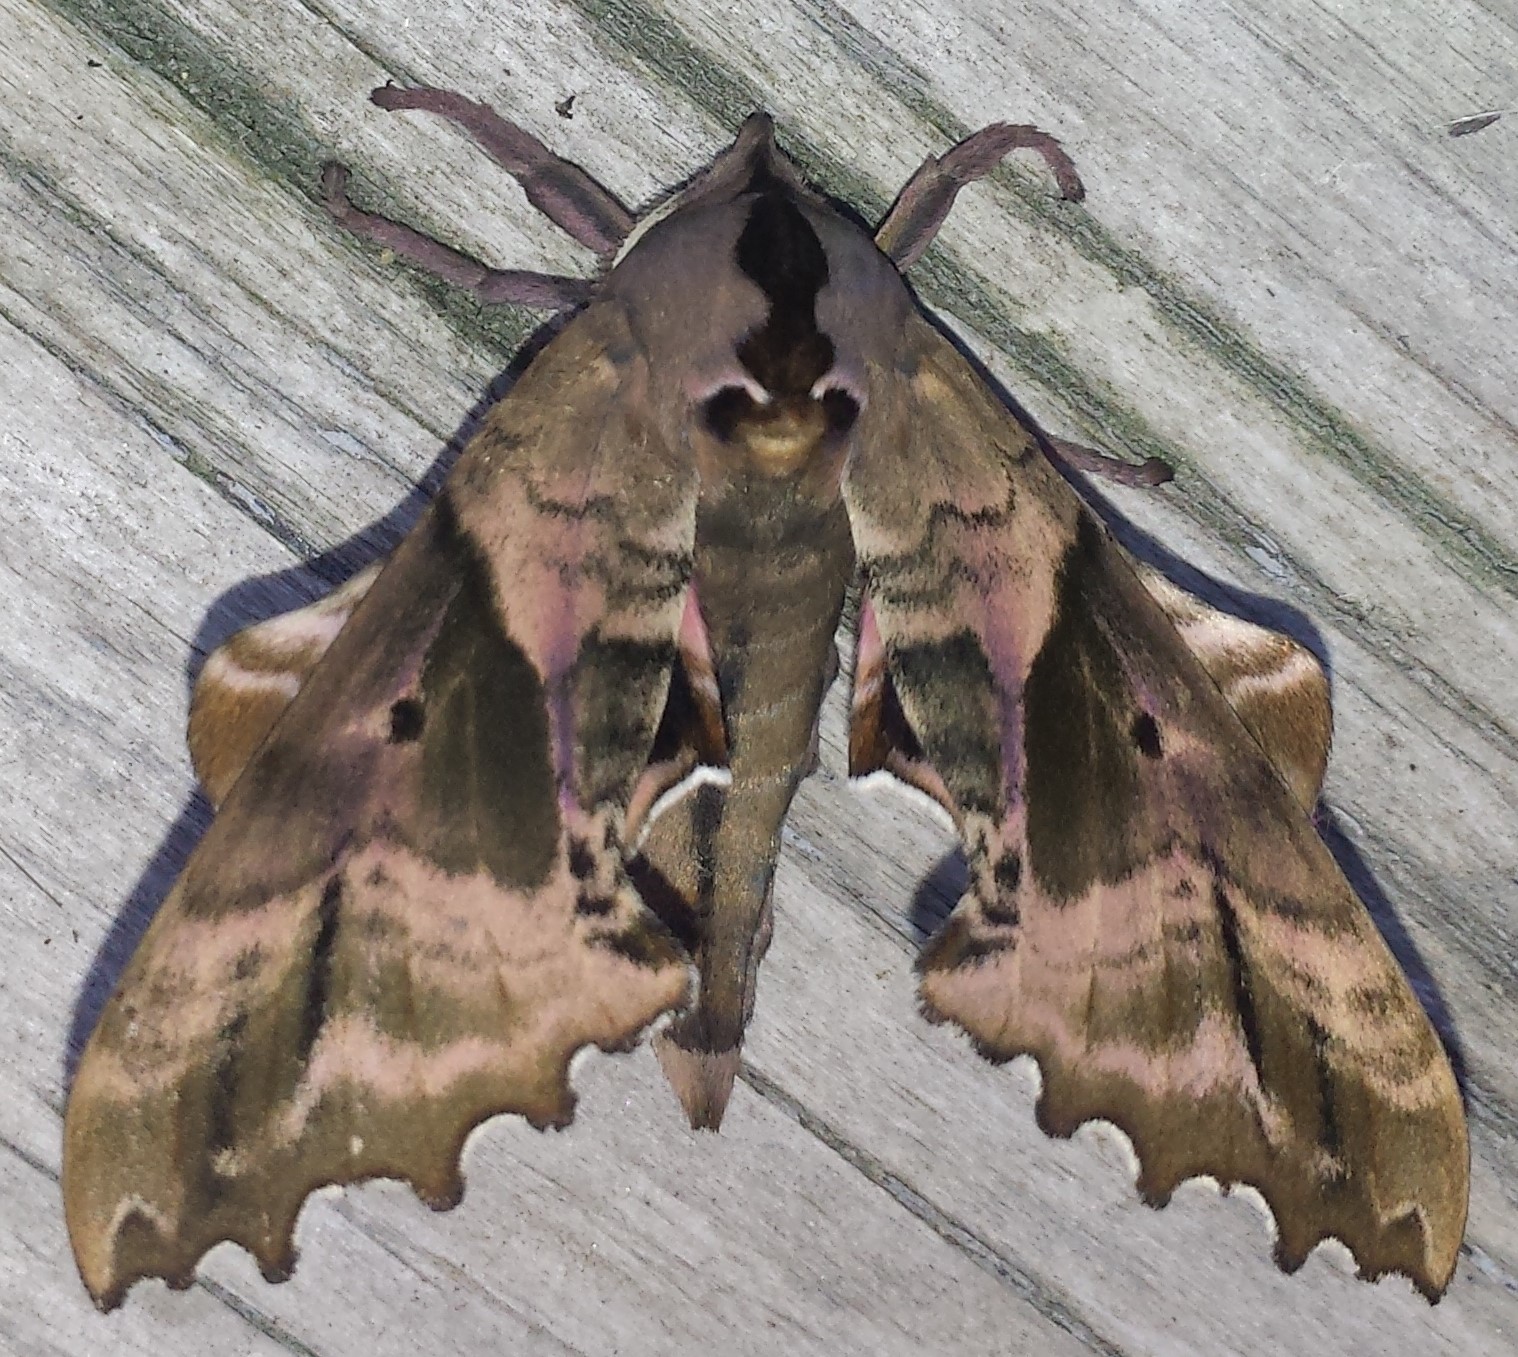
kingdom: Animalia
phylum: Arthropoda
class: Insecta
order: Lepidoptera
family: Sphingidae
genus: Paonias
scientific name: Paonias excaecata
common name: Blind-eyed sphinx
